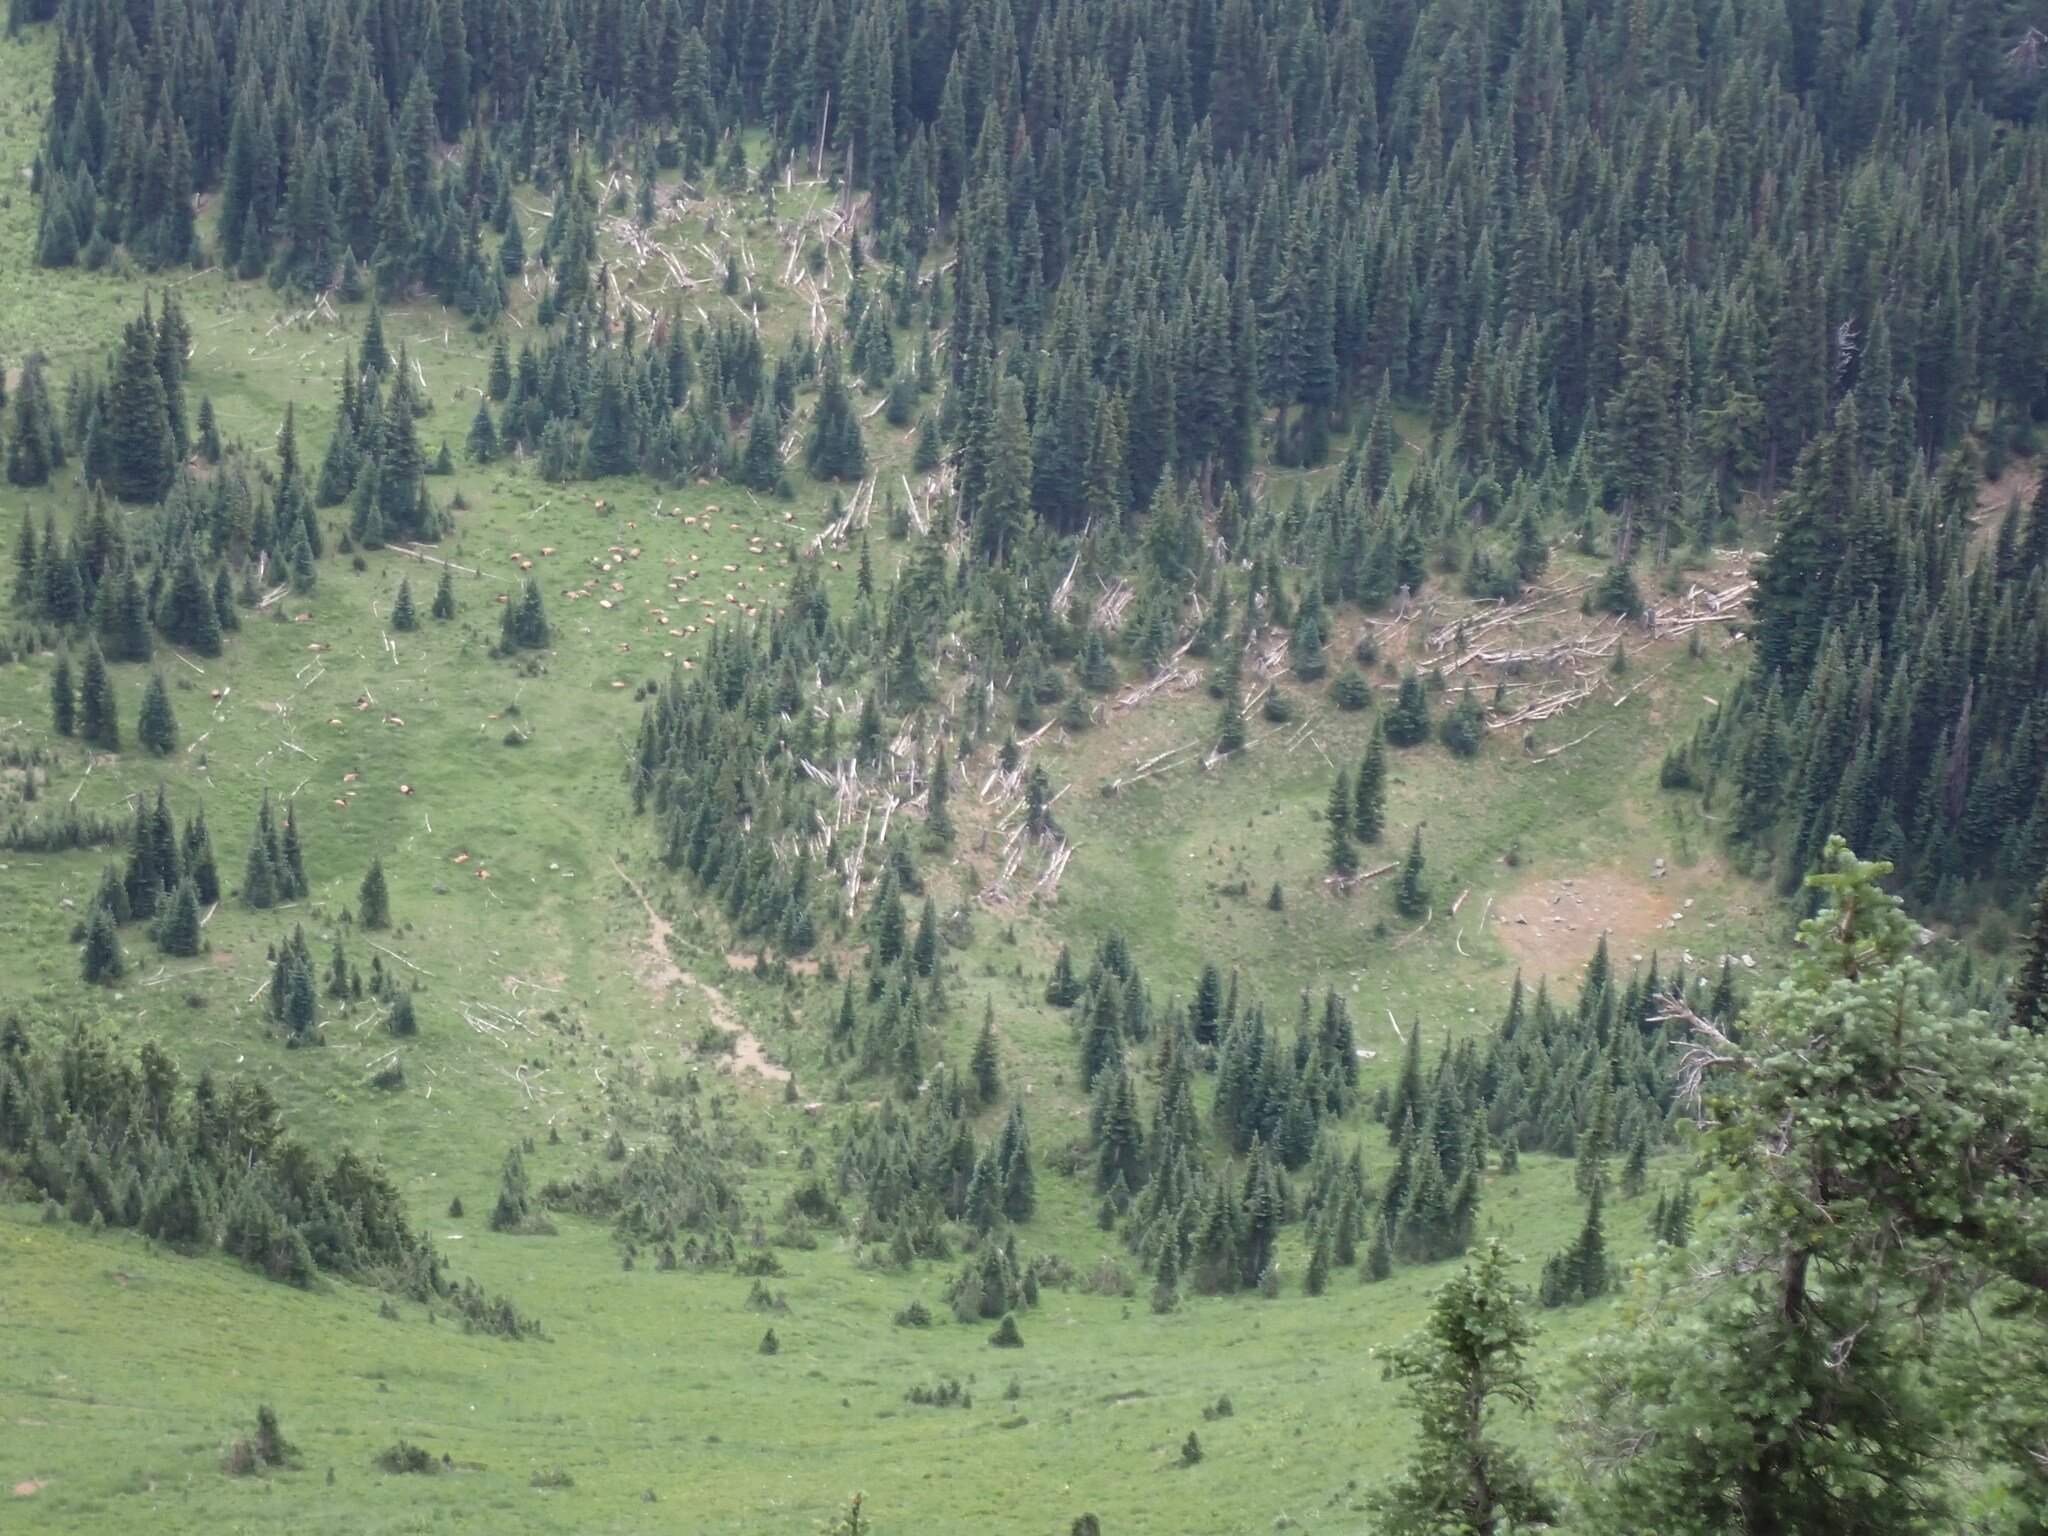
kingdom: Animalia
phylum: Chordata
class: Mammalia
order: Artiodactyla
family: Cervidae
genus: Cervus
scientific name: Cervus elaphus
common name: Red deer
